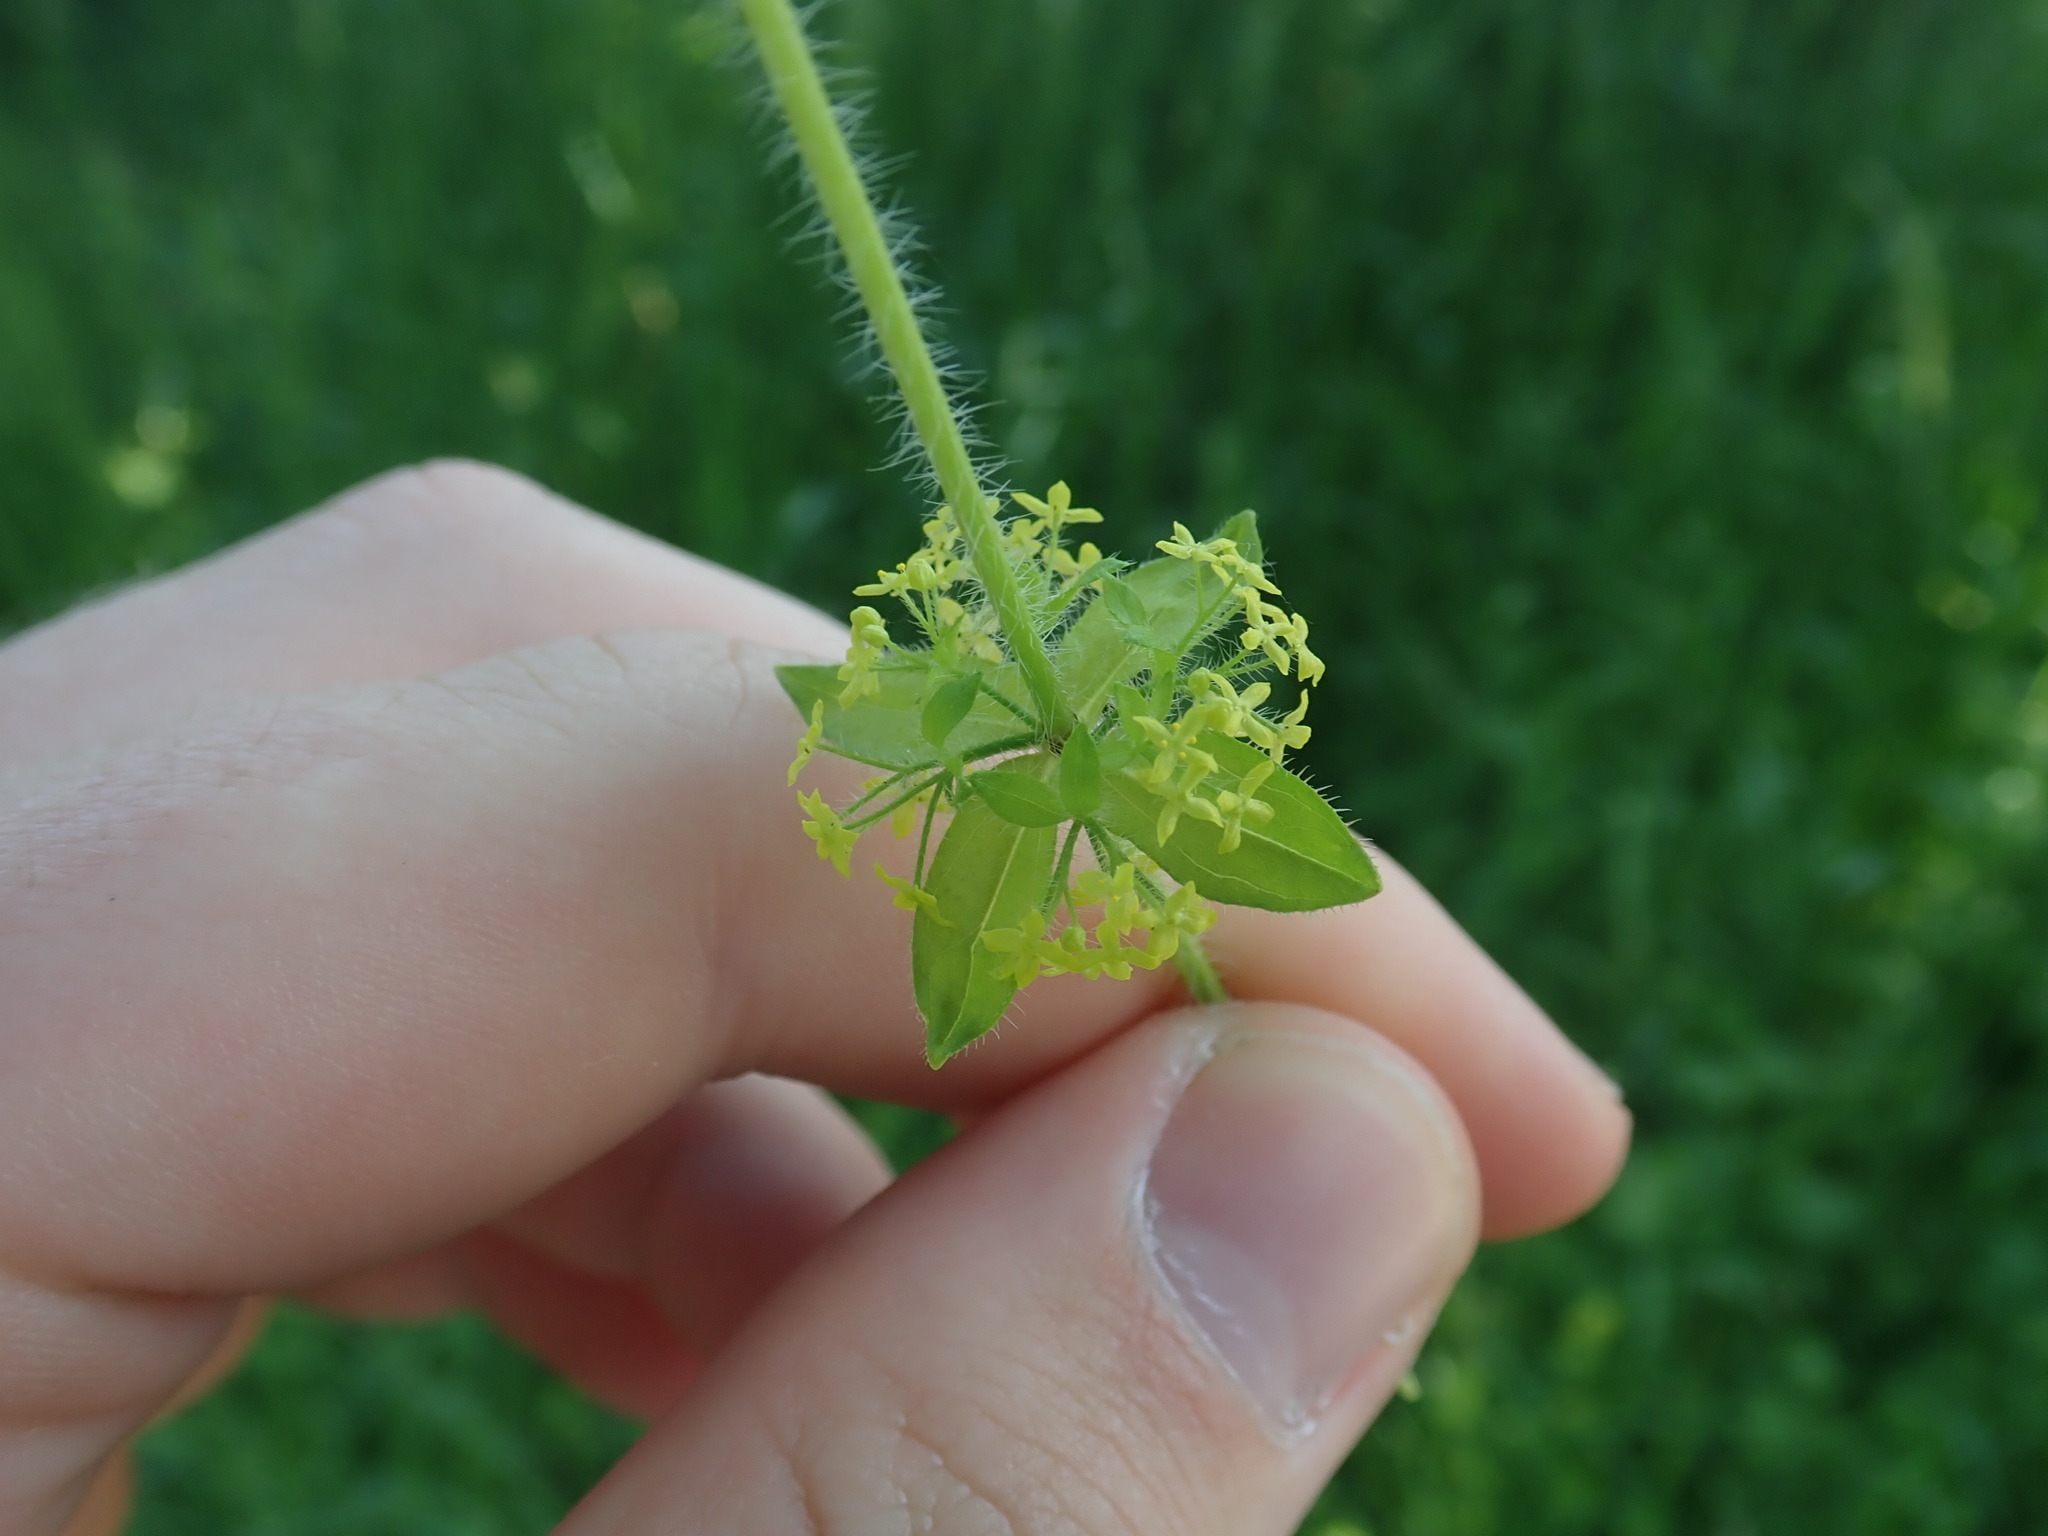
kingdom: Plantae
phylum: Tracheophyta
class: Magnoliopsida
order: Gentianales
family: Rubiaceae
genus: Cruciata
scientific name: Cruciata laevipes
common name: Crosswort
